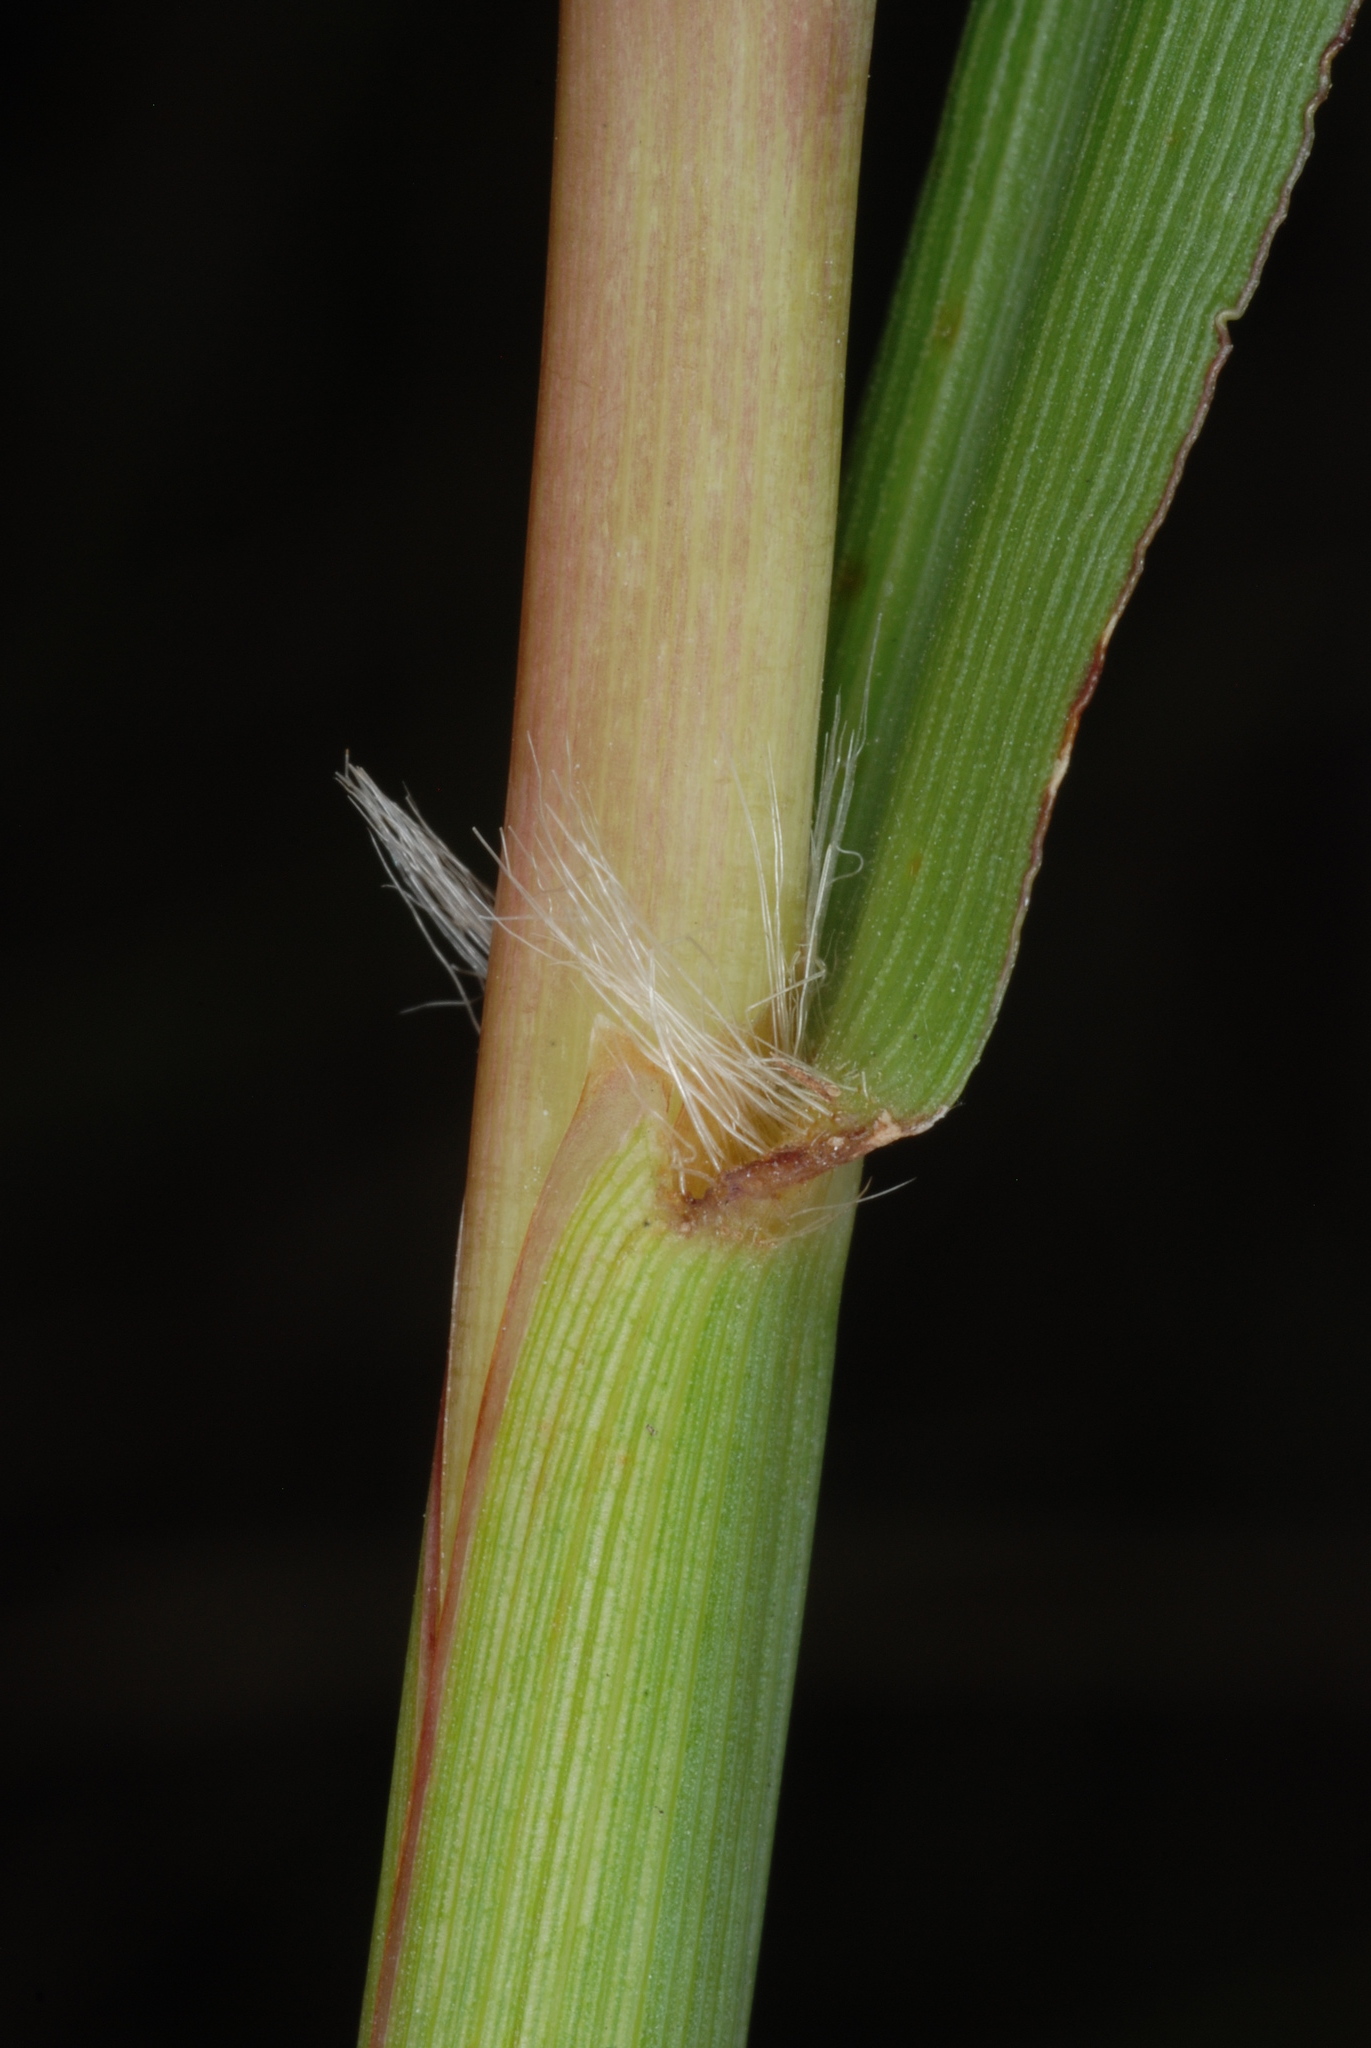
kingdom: Plantae
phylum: Tracheophyta
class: Liliopsida
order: Poales
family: Poaceae
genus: Paspalum
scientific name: Paspalum urvillei
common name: Vasey's grass
